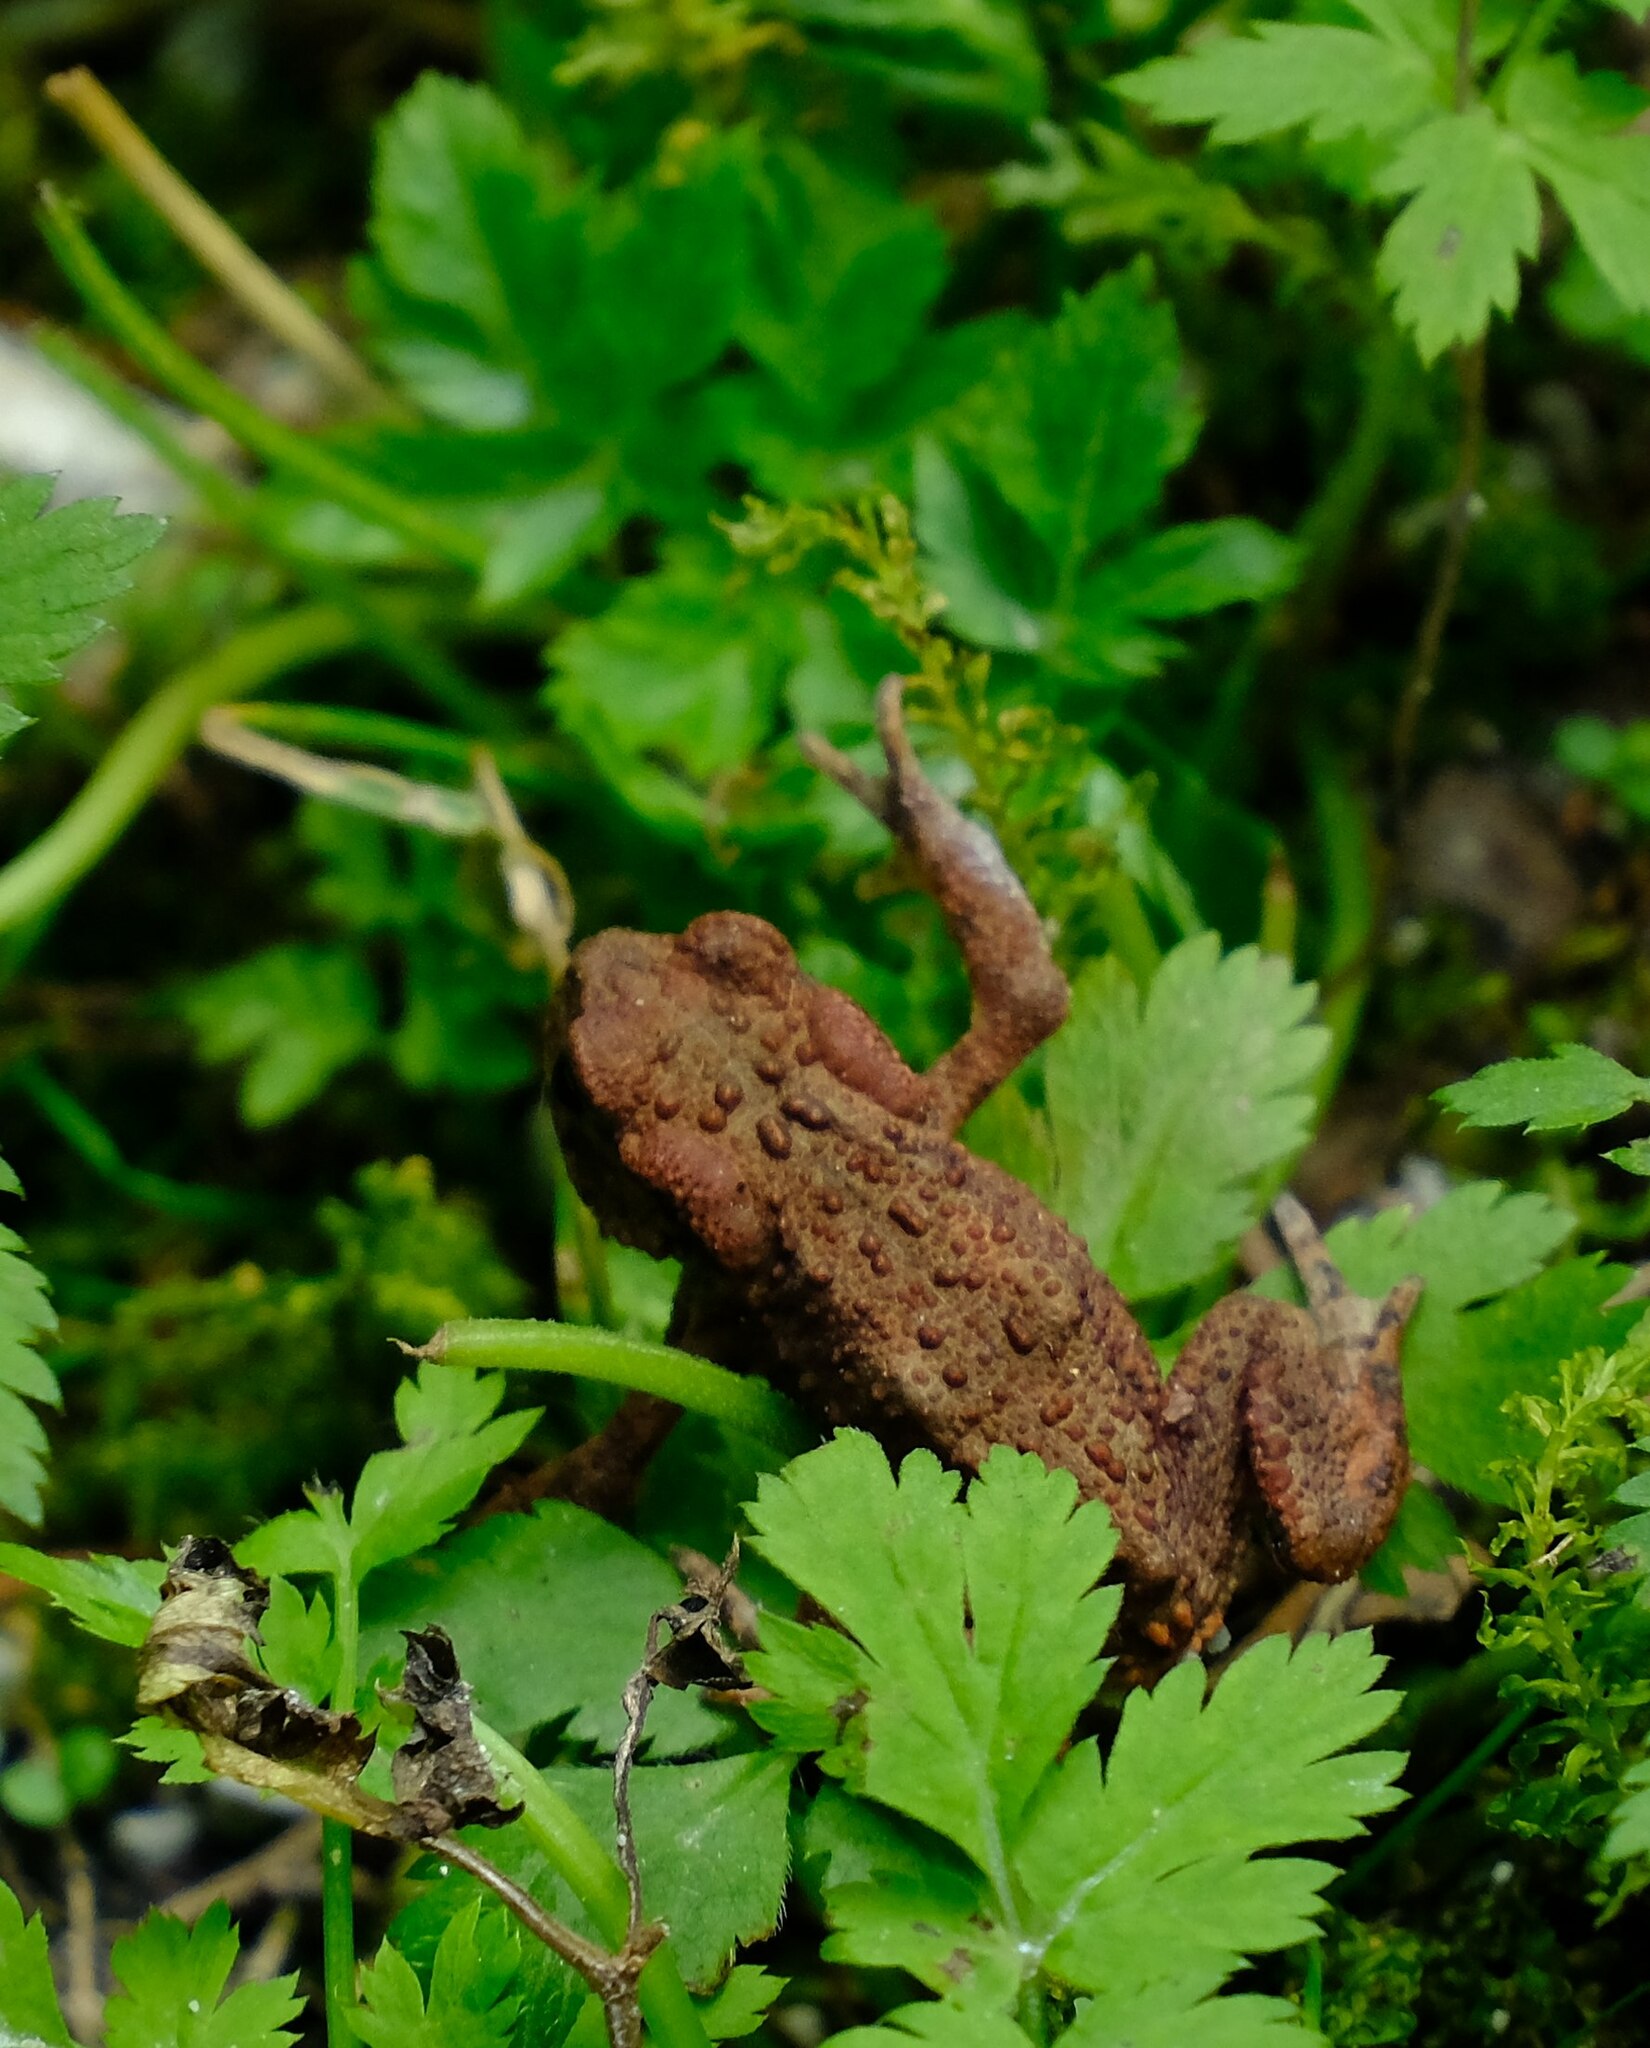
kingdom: Animalia
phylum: Chordata
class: Amphibia
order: Anura
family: Bufonidae
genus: Bufo
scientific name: Bufo bufo
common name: Common toad
